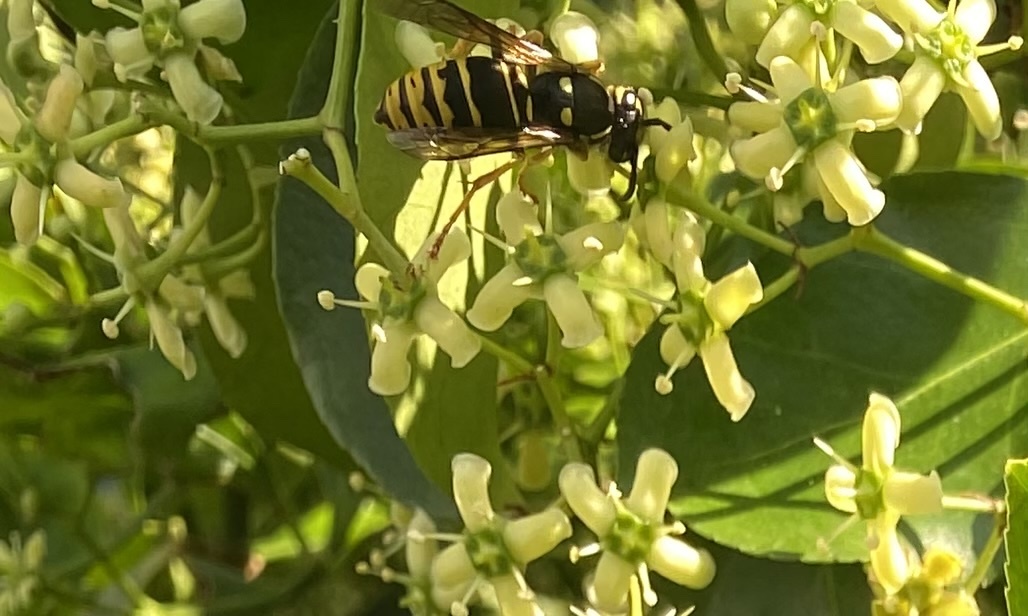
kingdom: Animalia
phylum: Arthropoda
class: Insecta
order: Hymenoptera
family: Vespidae
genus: Vespula
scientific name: Vespula vidua
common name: Widow yellowjacket
